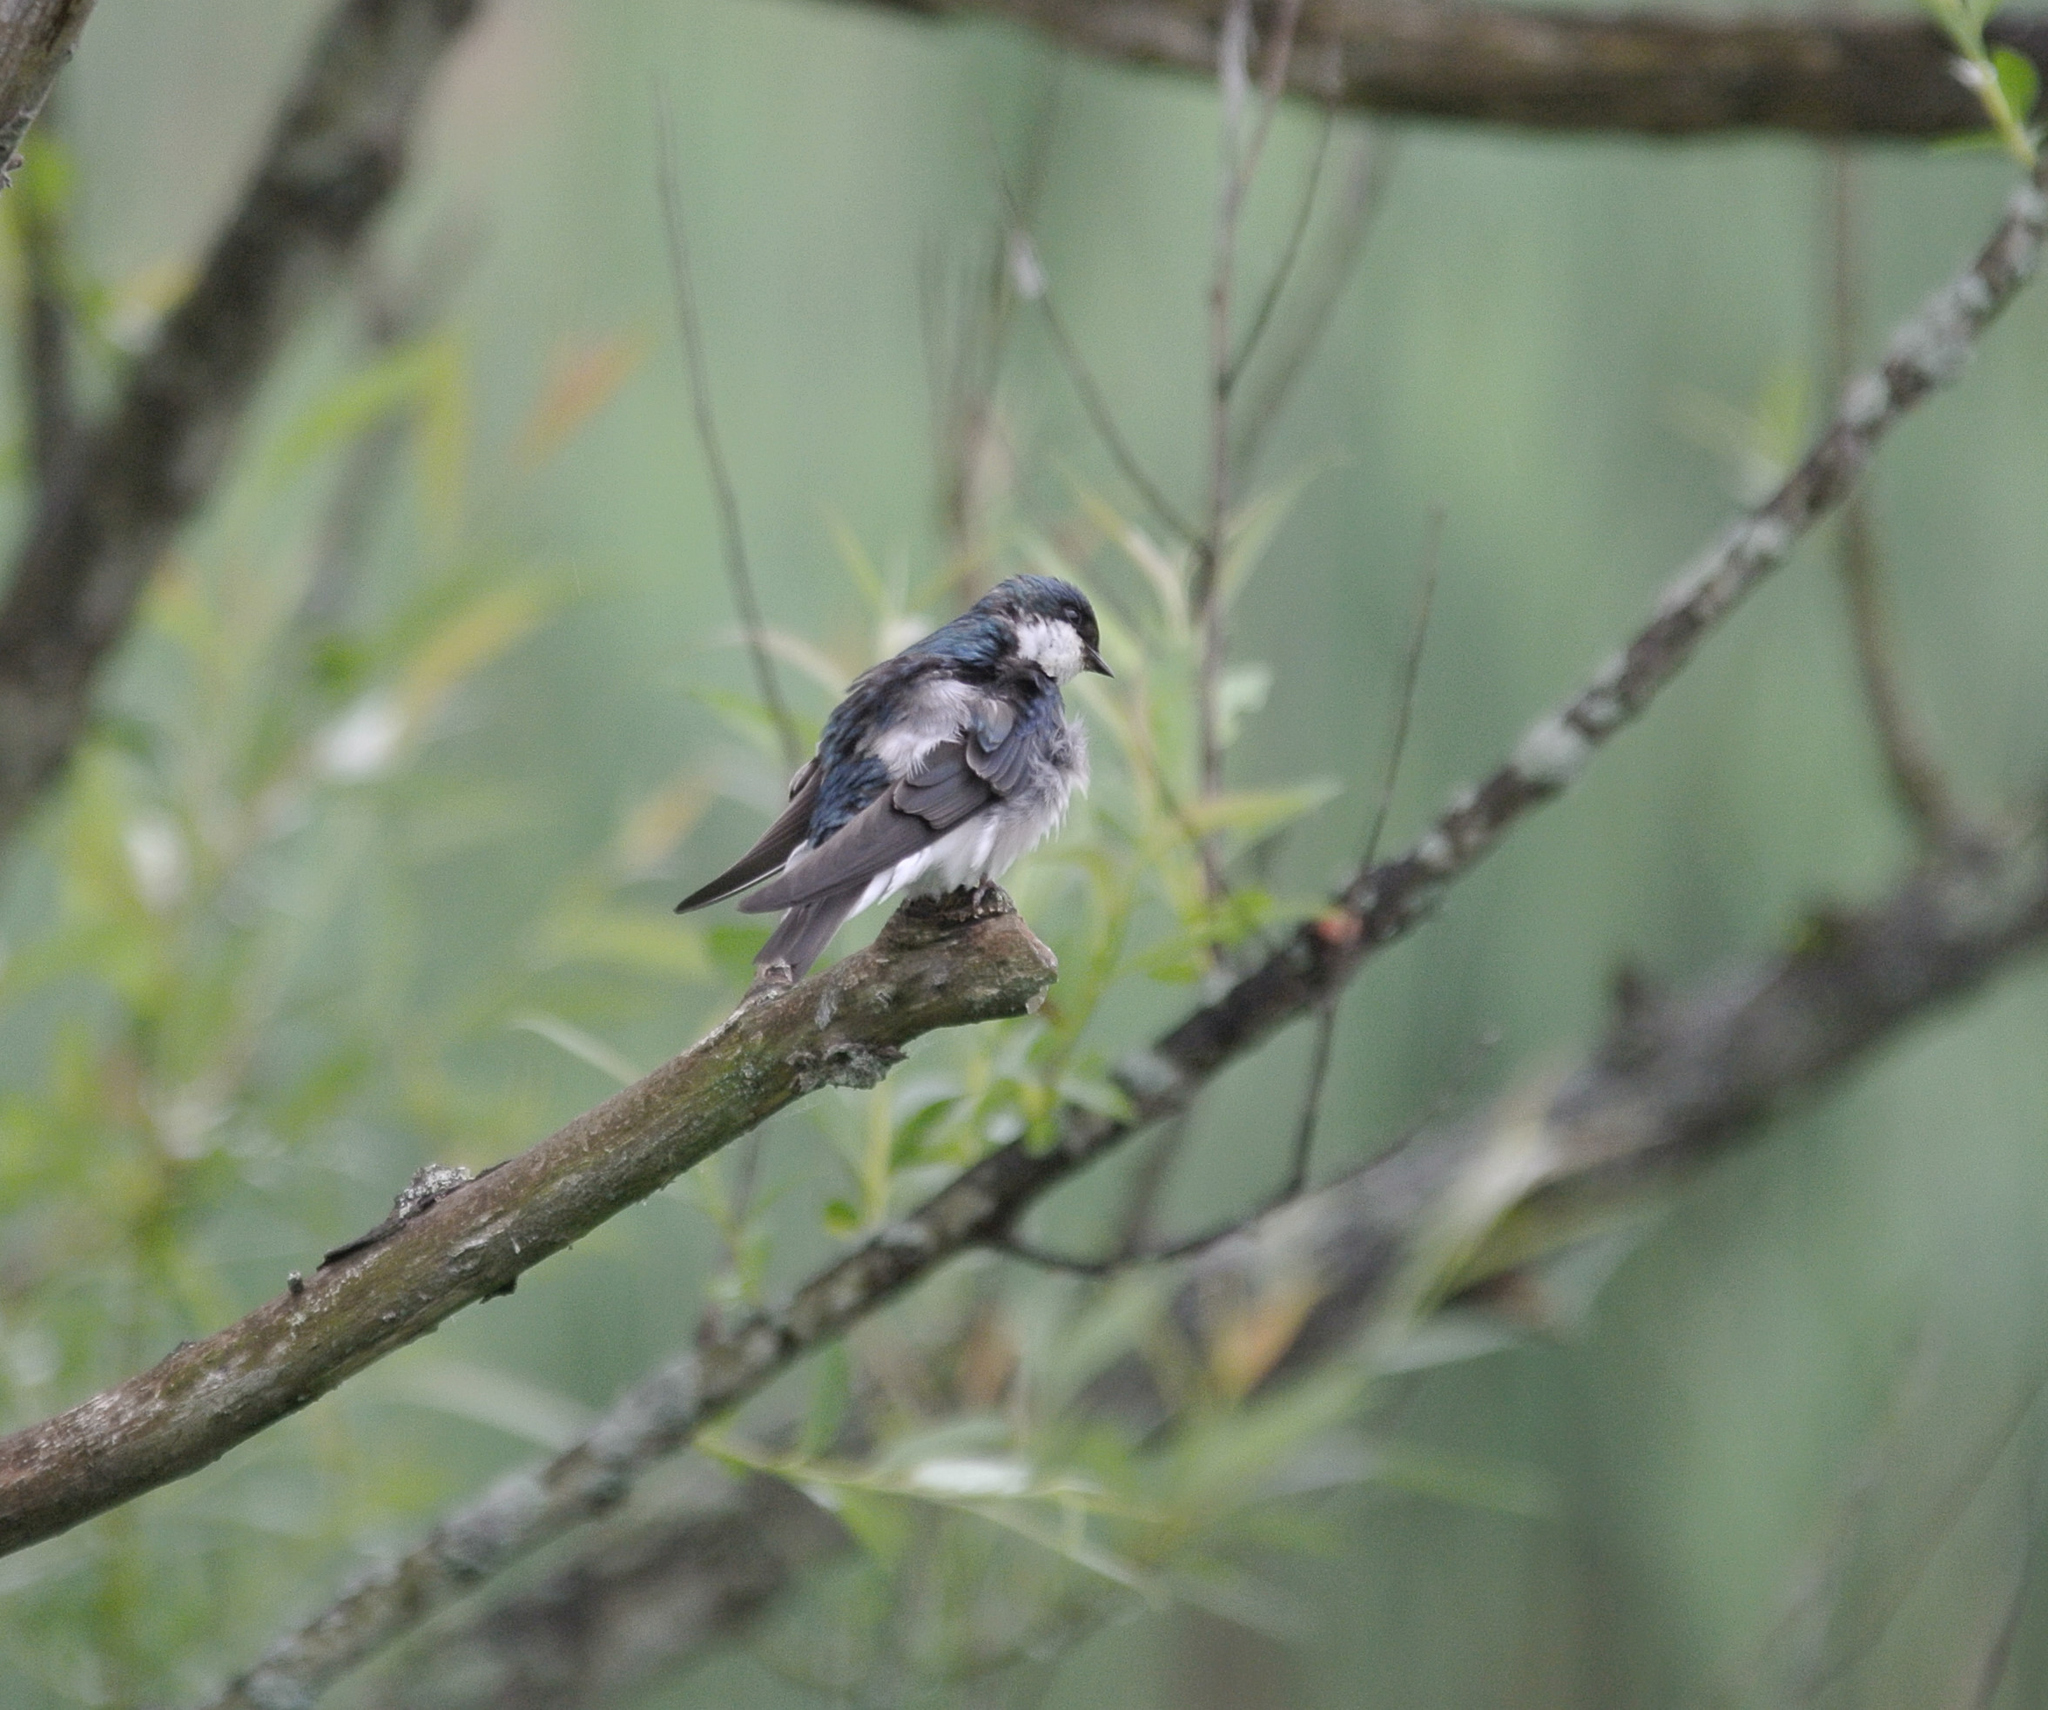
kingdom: Animalia
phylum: Chordata
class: Aves
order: Passeriformes
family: Hirundinidae
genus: Tachycineta
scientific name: Tachycineta bicolor
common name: Tree swallow
